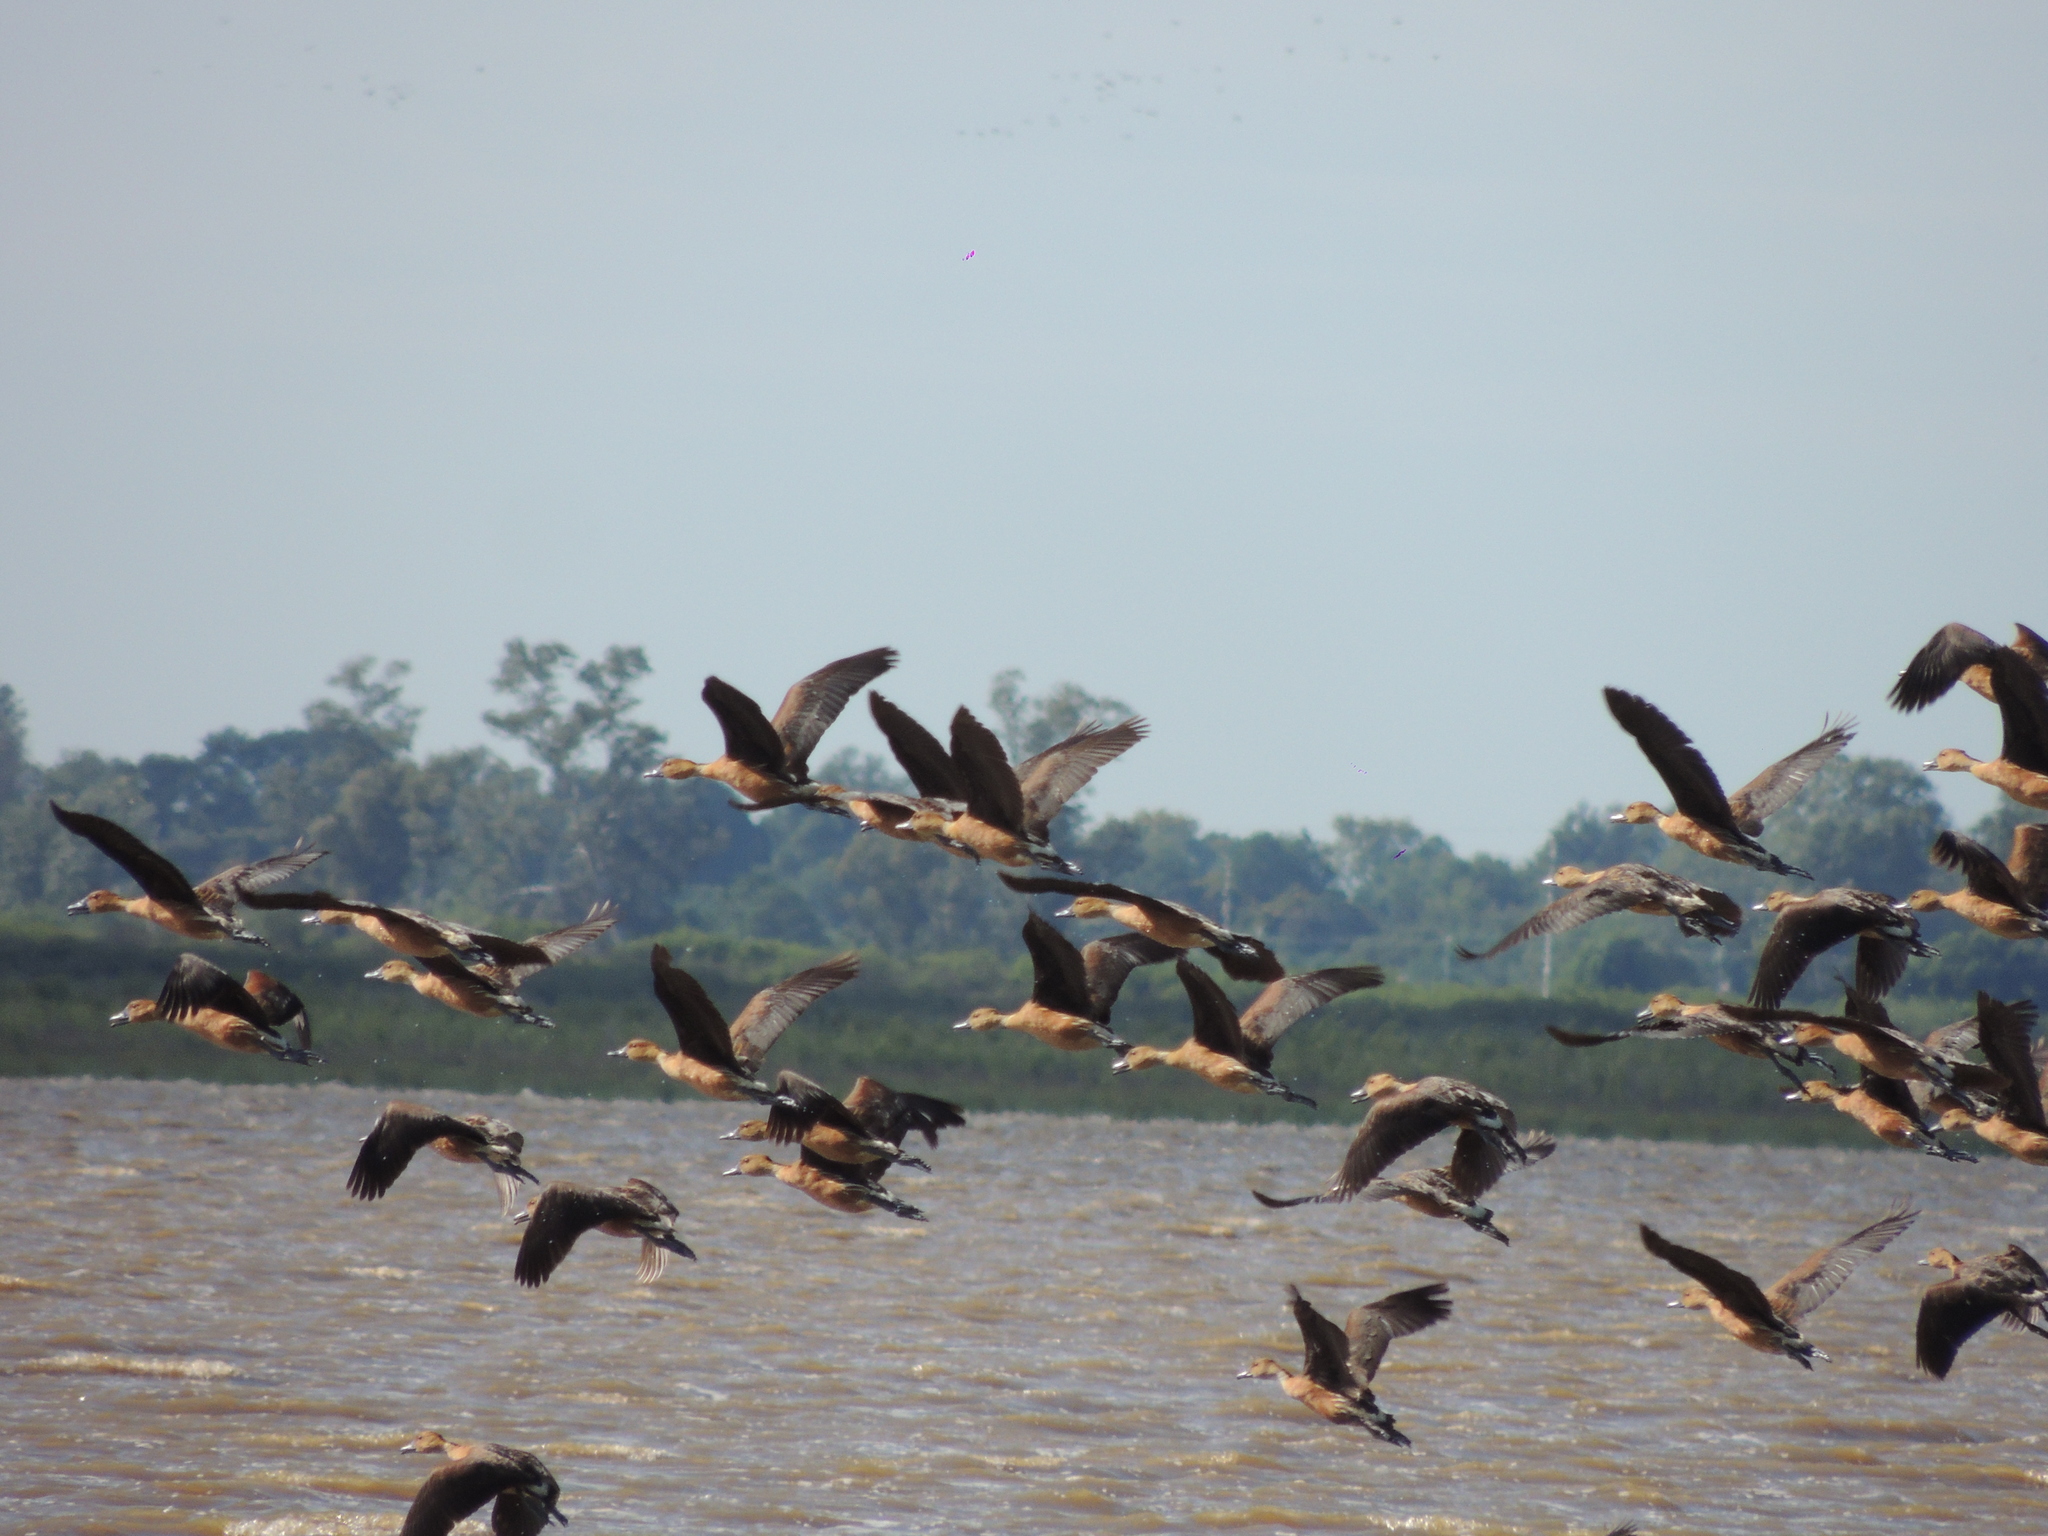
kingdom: Animalia
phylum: Chordata
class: Aves
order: Anseriformes
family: Anatidae
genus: Dendrocygna
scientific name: Dendrocygna bicolor
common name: Fulvous whistling duck
